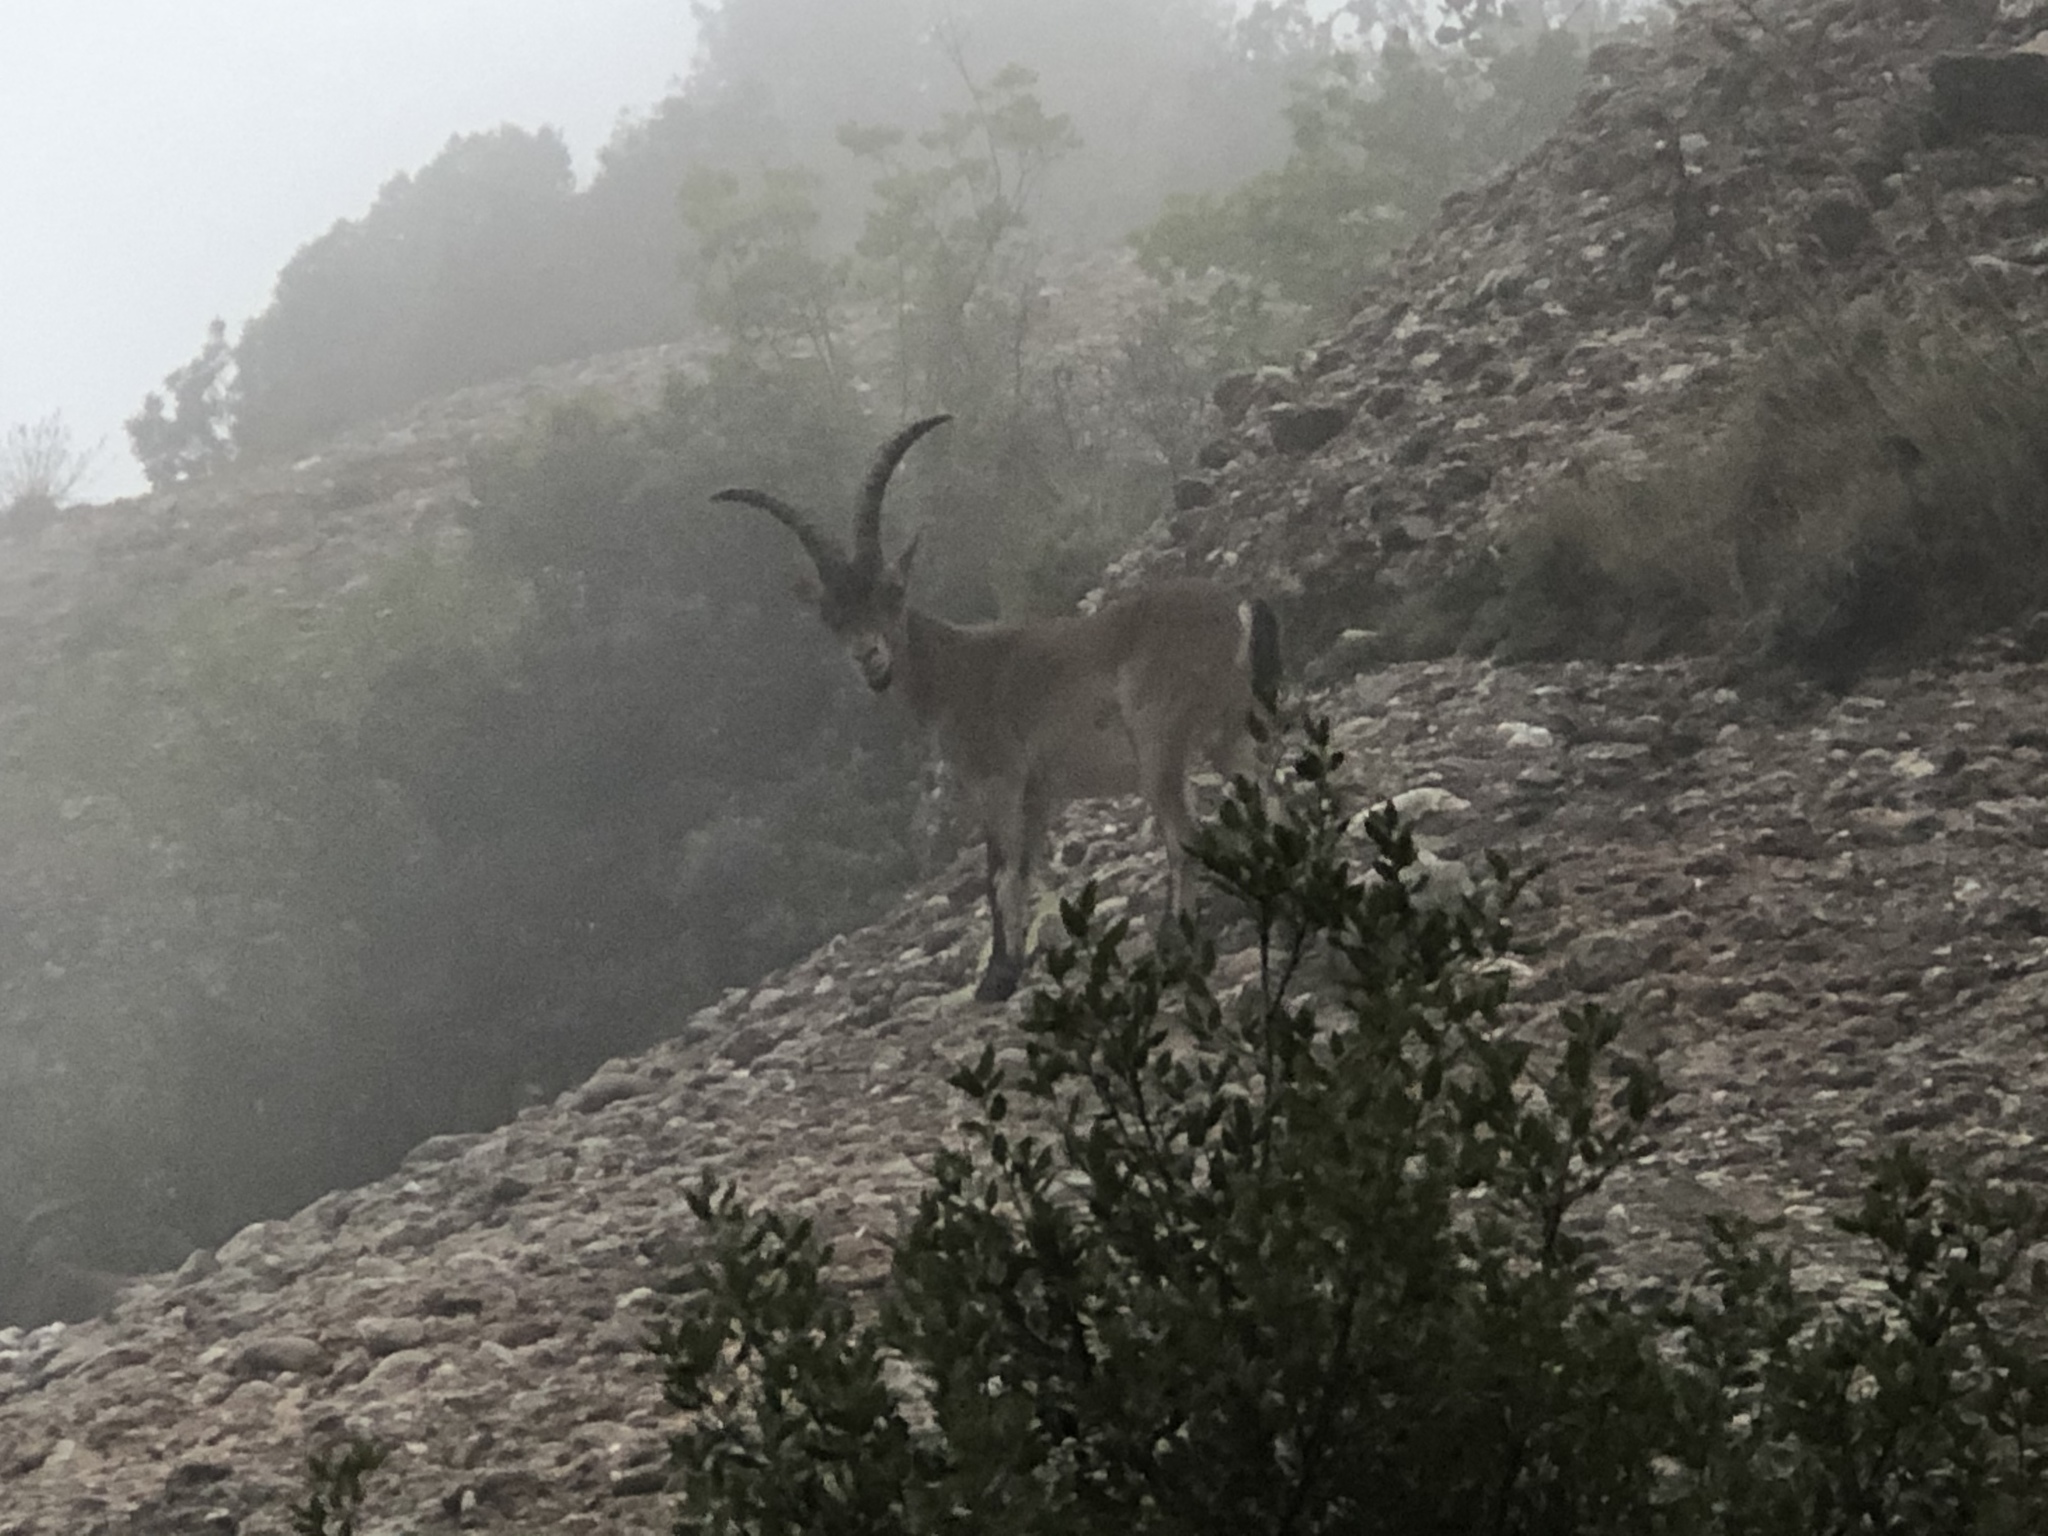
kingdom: Animalia
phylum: Chordata
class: Mammalia
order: Artiodactyla
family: Bovidae
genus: Capra
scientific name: Capra pyrenaica
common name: Spanish ibex
